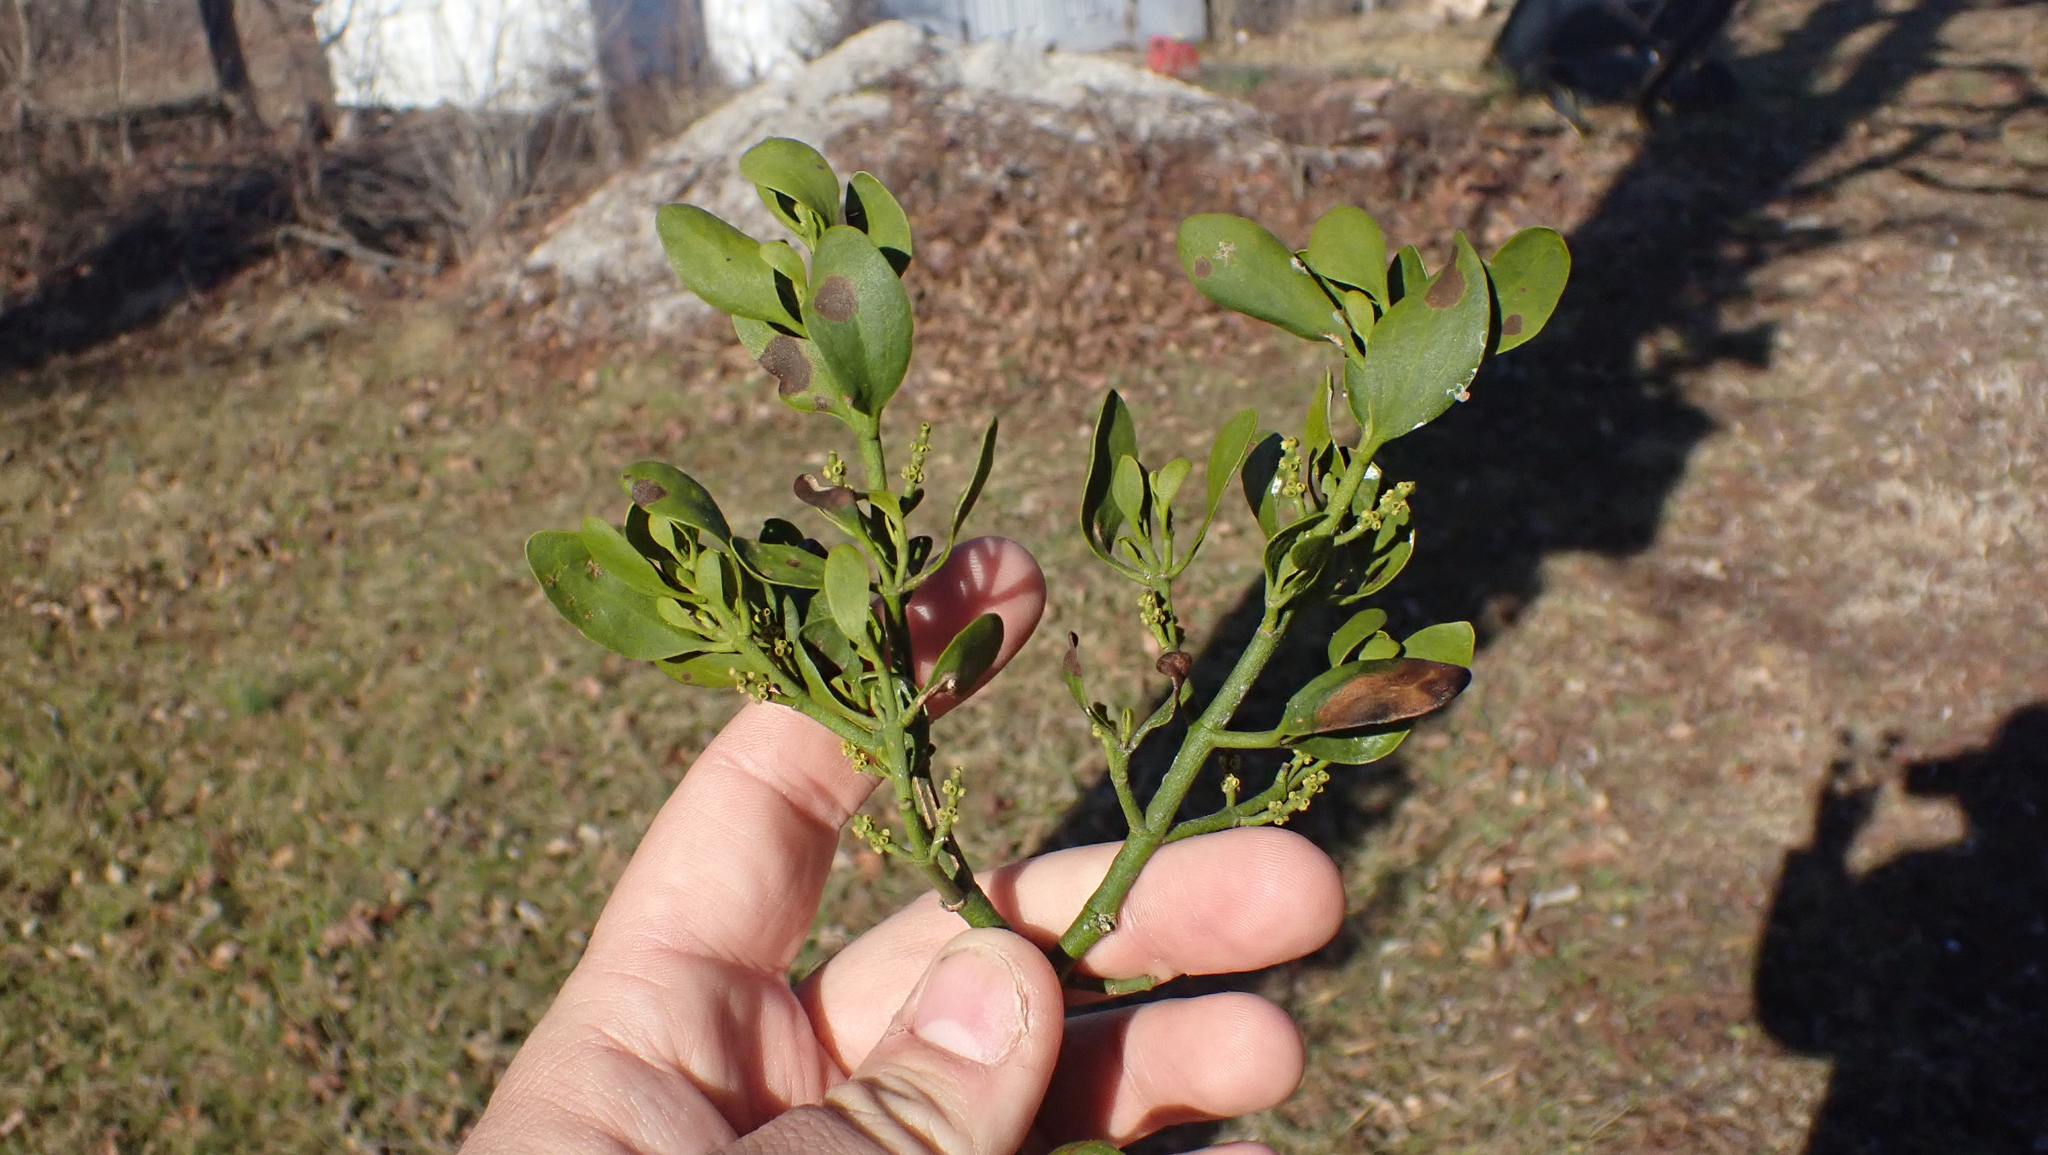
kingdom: Plantae
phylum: Tracheophyta
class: Magnoliopsida
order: Santalales
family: Viscaceae
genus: Phoradendron
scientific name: Phoradendron leucarpum
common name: Pacific mistletoe
